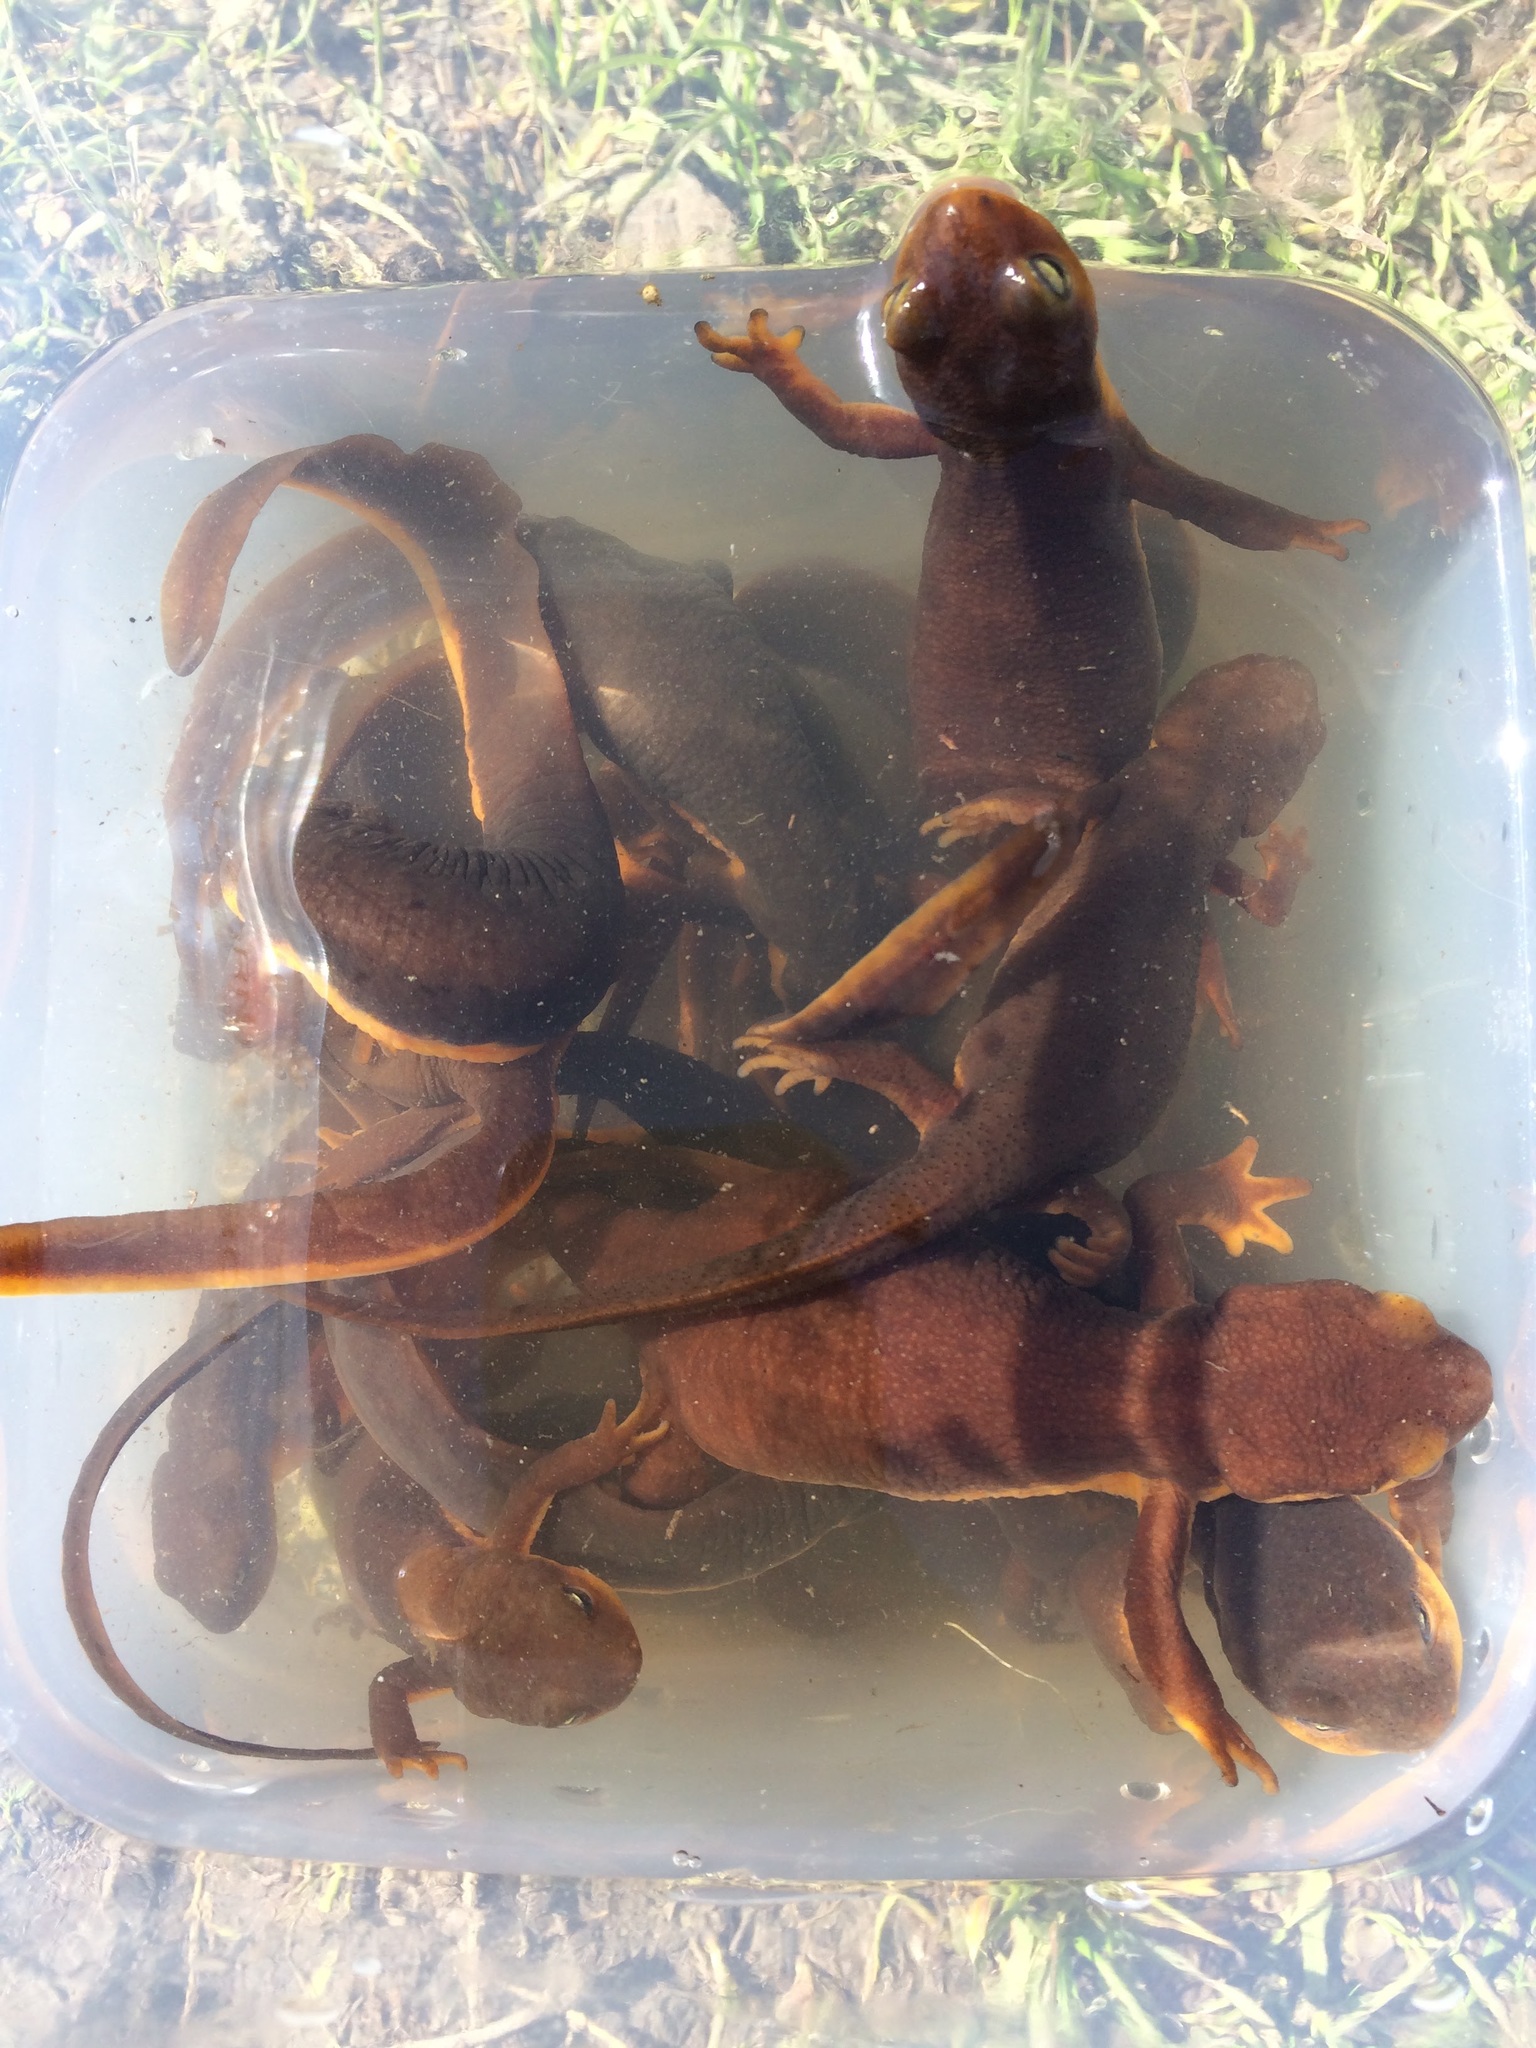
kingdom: Animalia
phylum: Chordata
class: Amphibia
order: Caudata
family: Salamandridae
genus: Taricha
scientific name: Taricha torosa
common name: California newt
